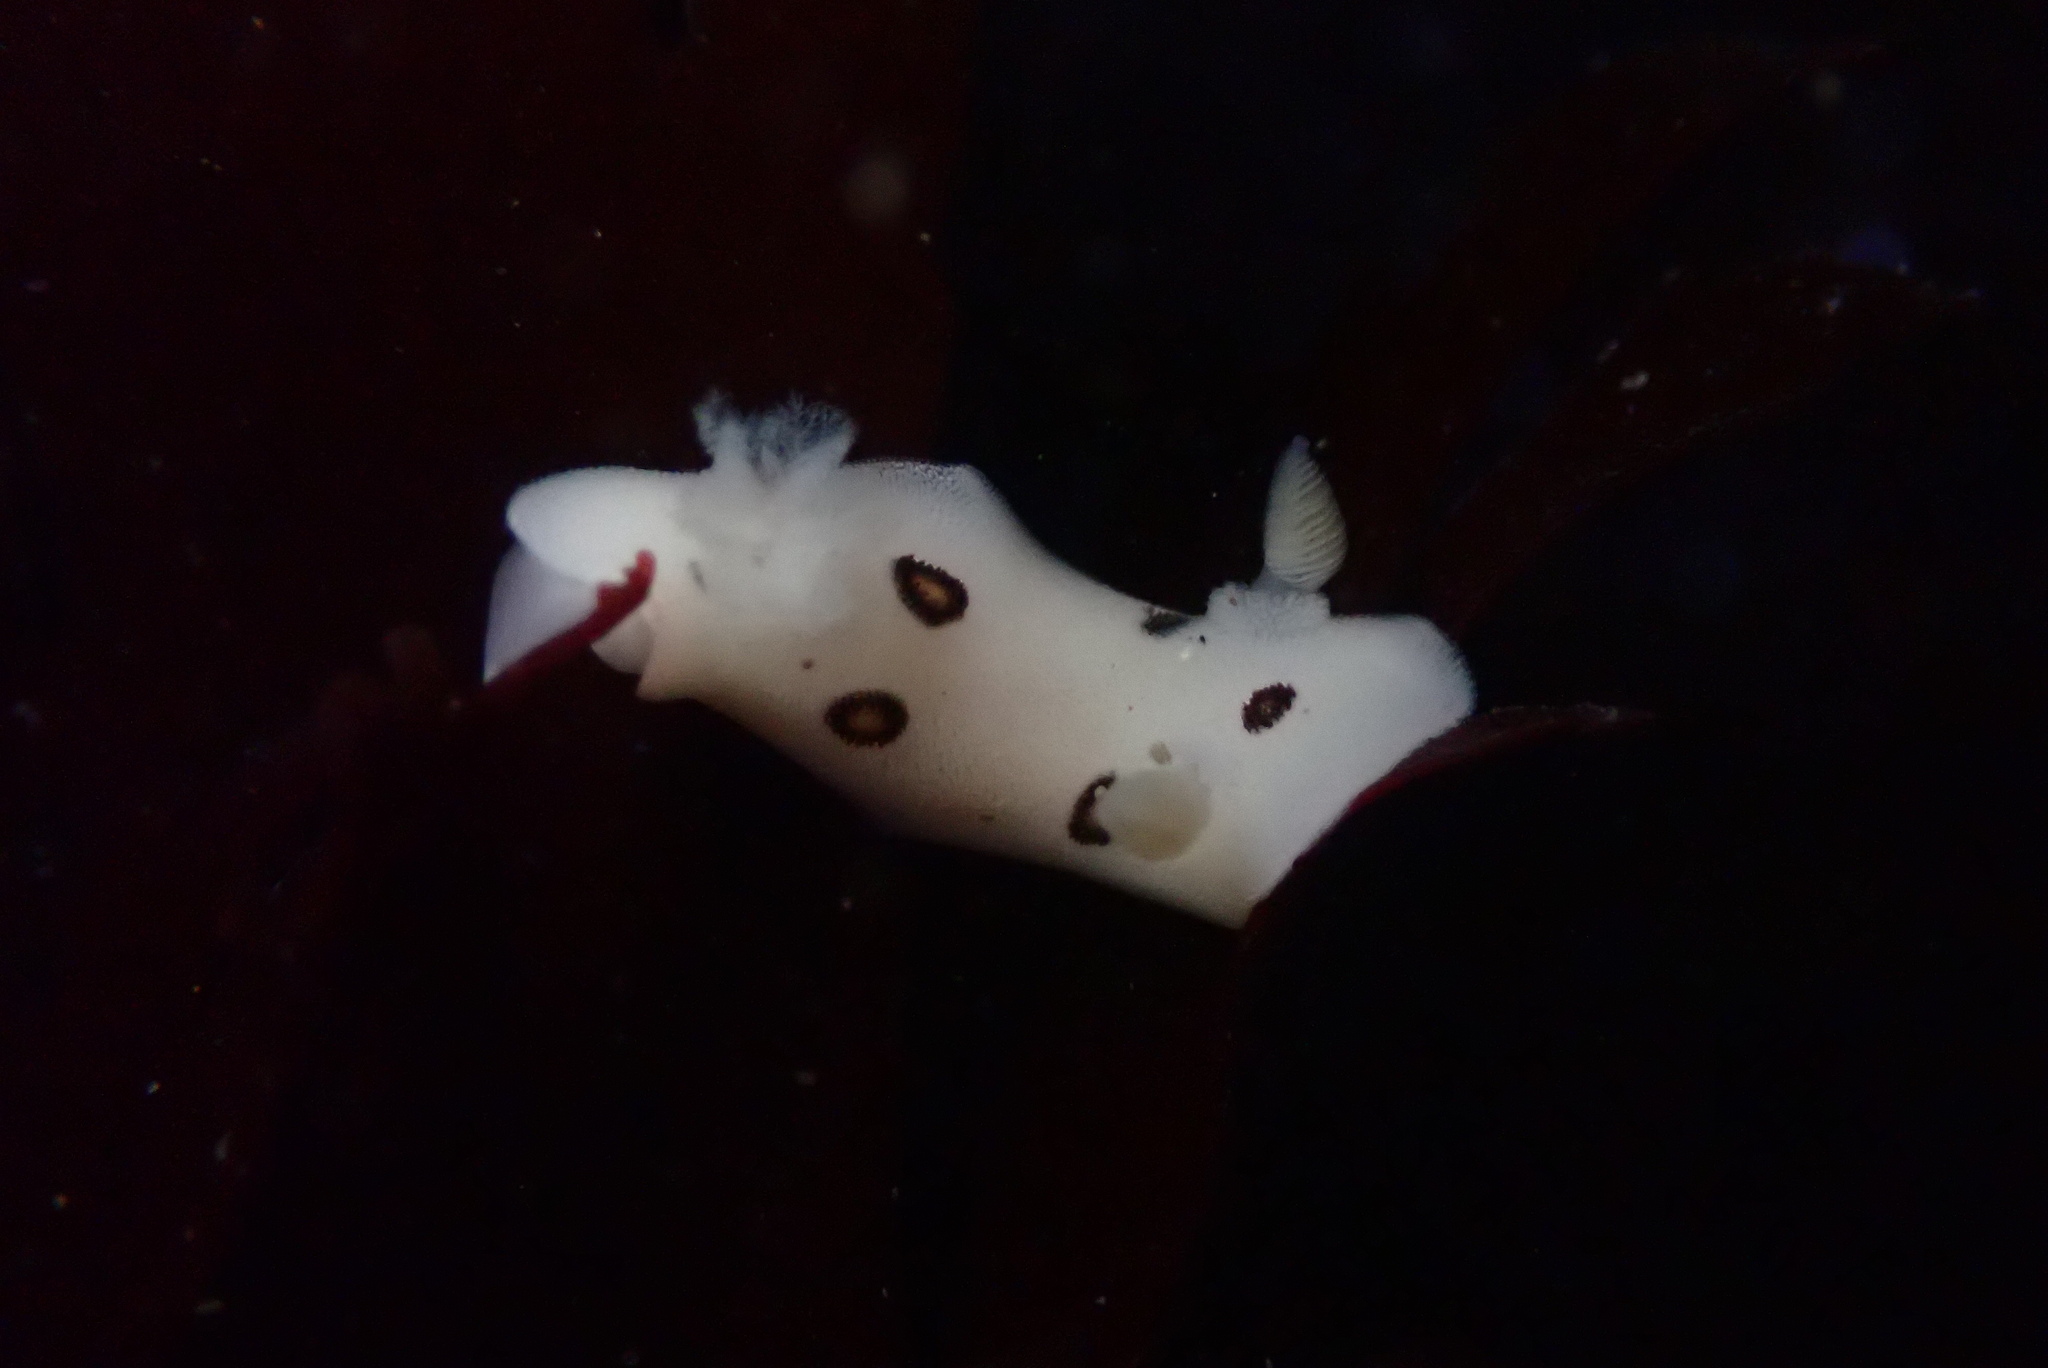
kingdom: Animalia
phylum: Mollusca
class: Gastropoda
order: Nudibranchia
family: Discodorididae
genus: Diaulula
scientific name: Diaulula sandiegensis
